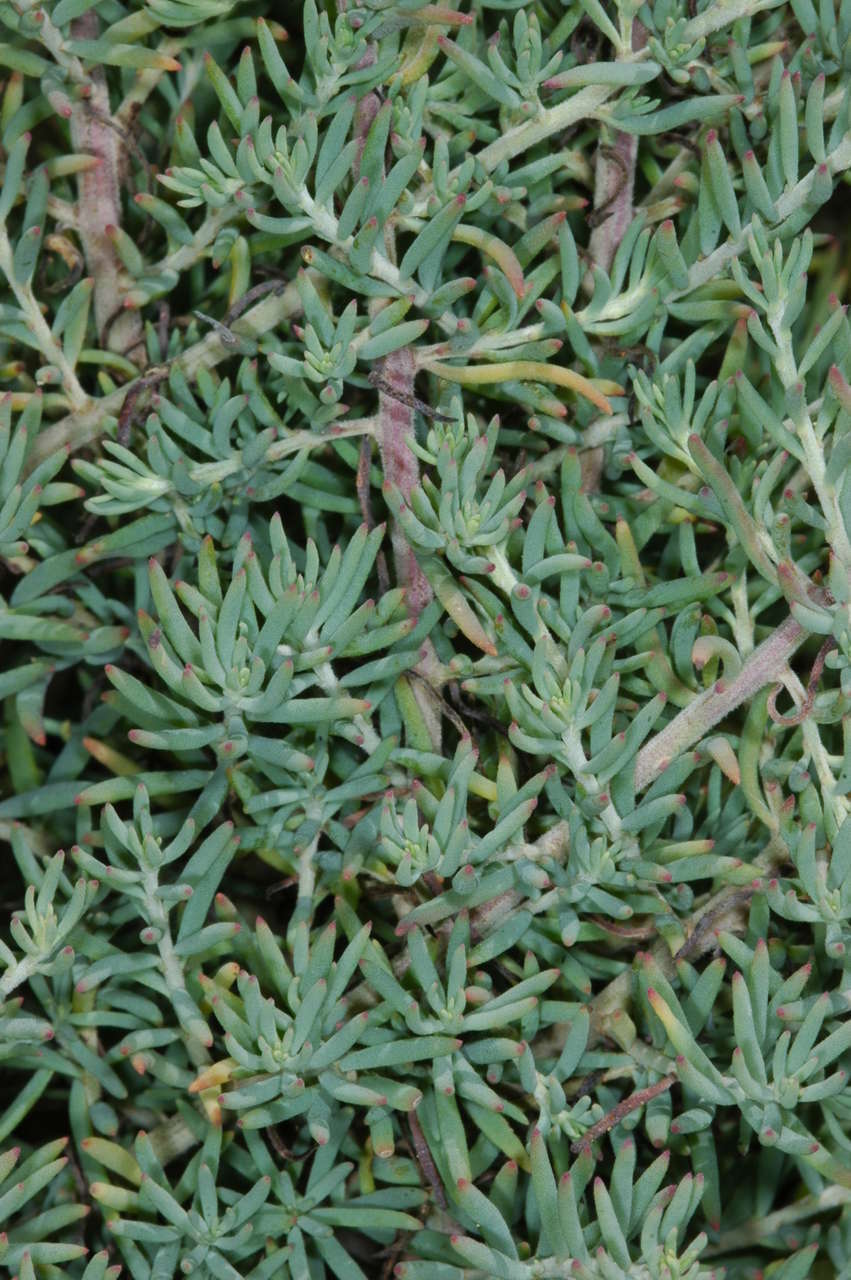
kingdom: Plantae
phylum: Tracheophyta
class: Magnoliopsida
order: Caryophyllales
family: Amaranthaceae
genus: Enchylaena
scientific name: Enchylaena tomentosa
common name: Ruby saltbush
